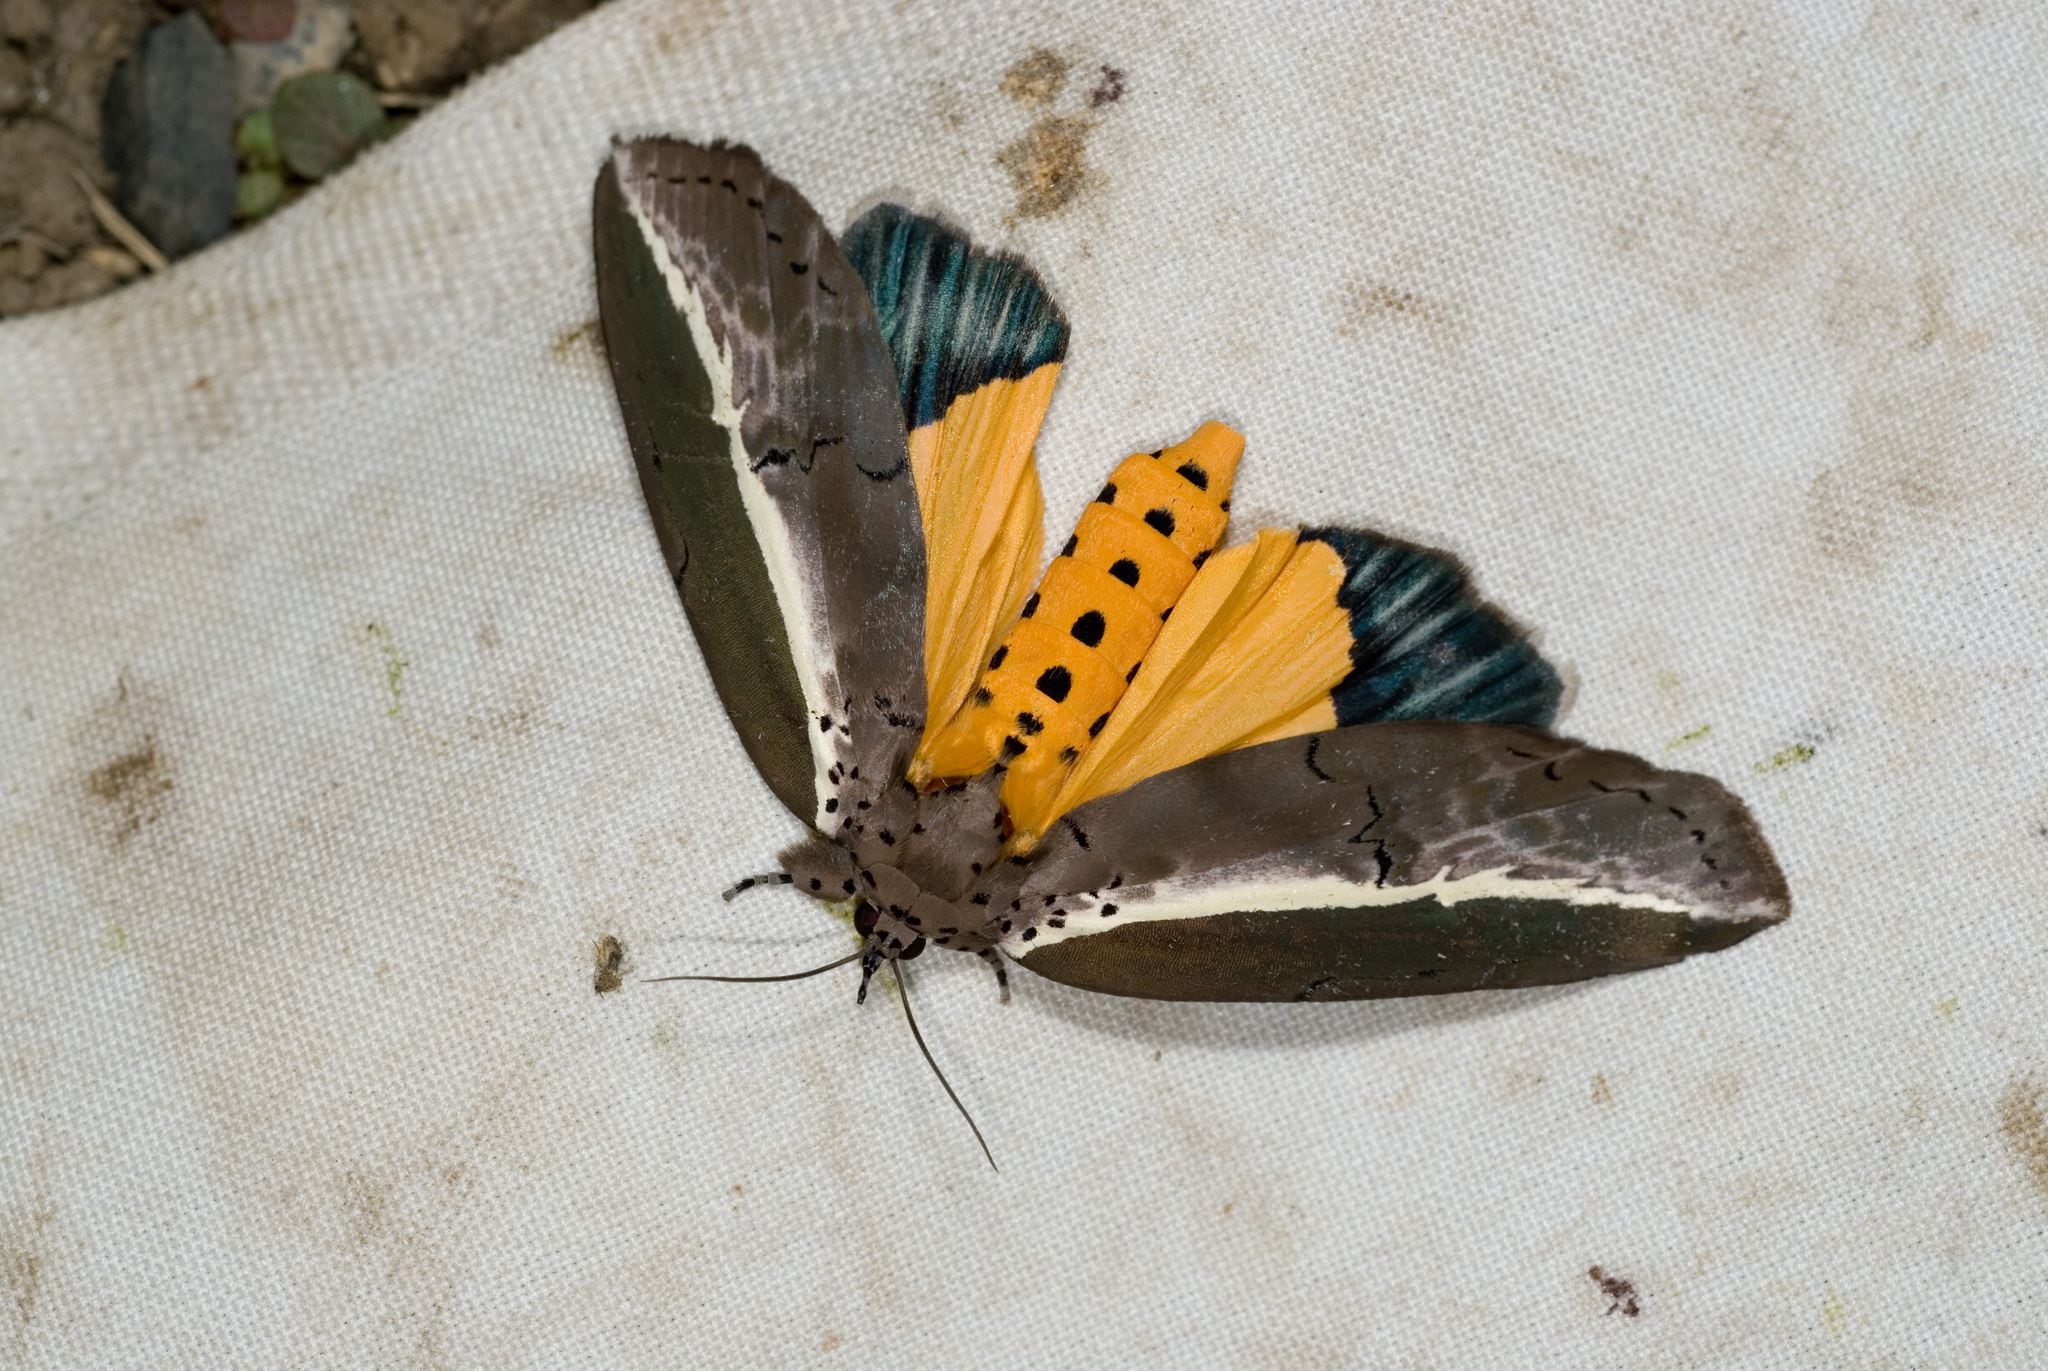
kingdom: Animalia
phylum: Arthropoda
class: Insecta
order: Lepidoptera
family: Nolidae
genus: Eligma
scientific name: Eligma narcissus
